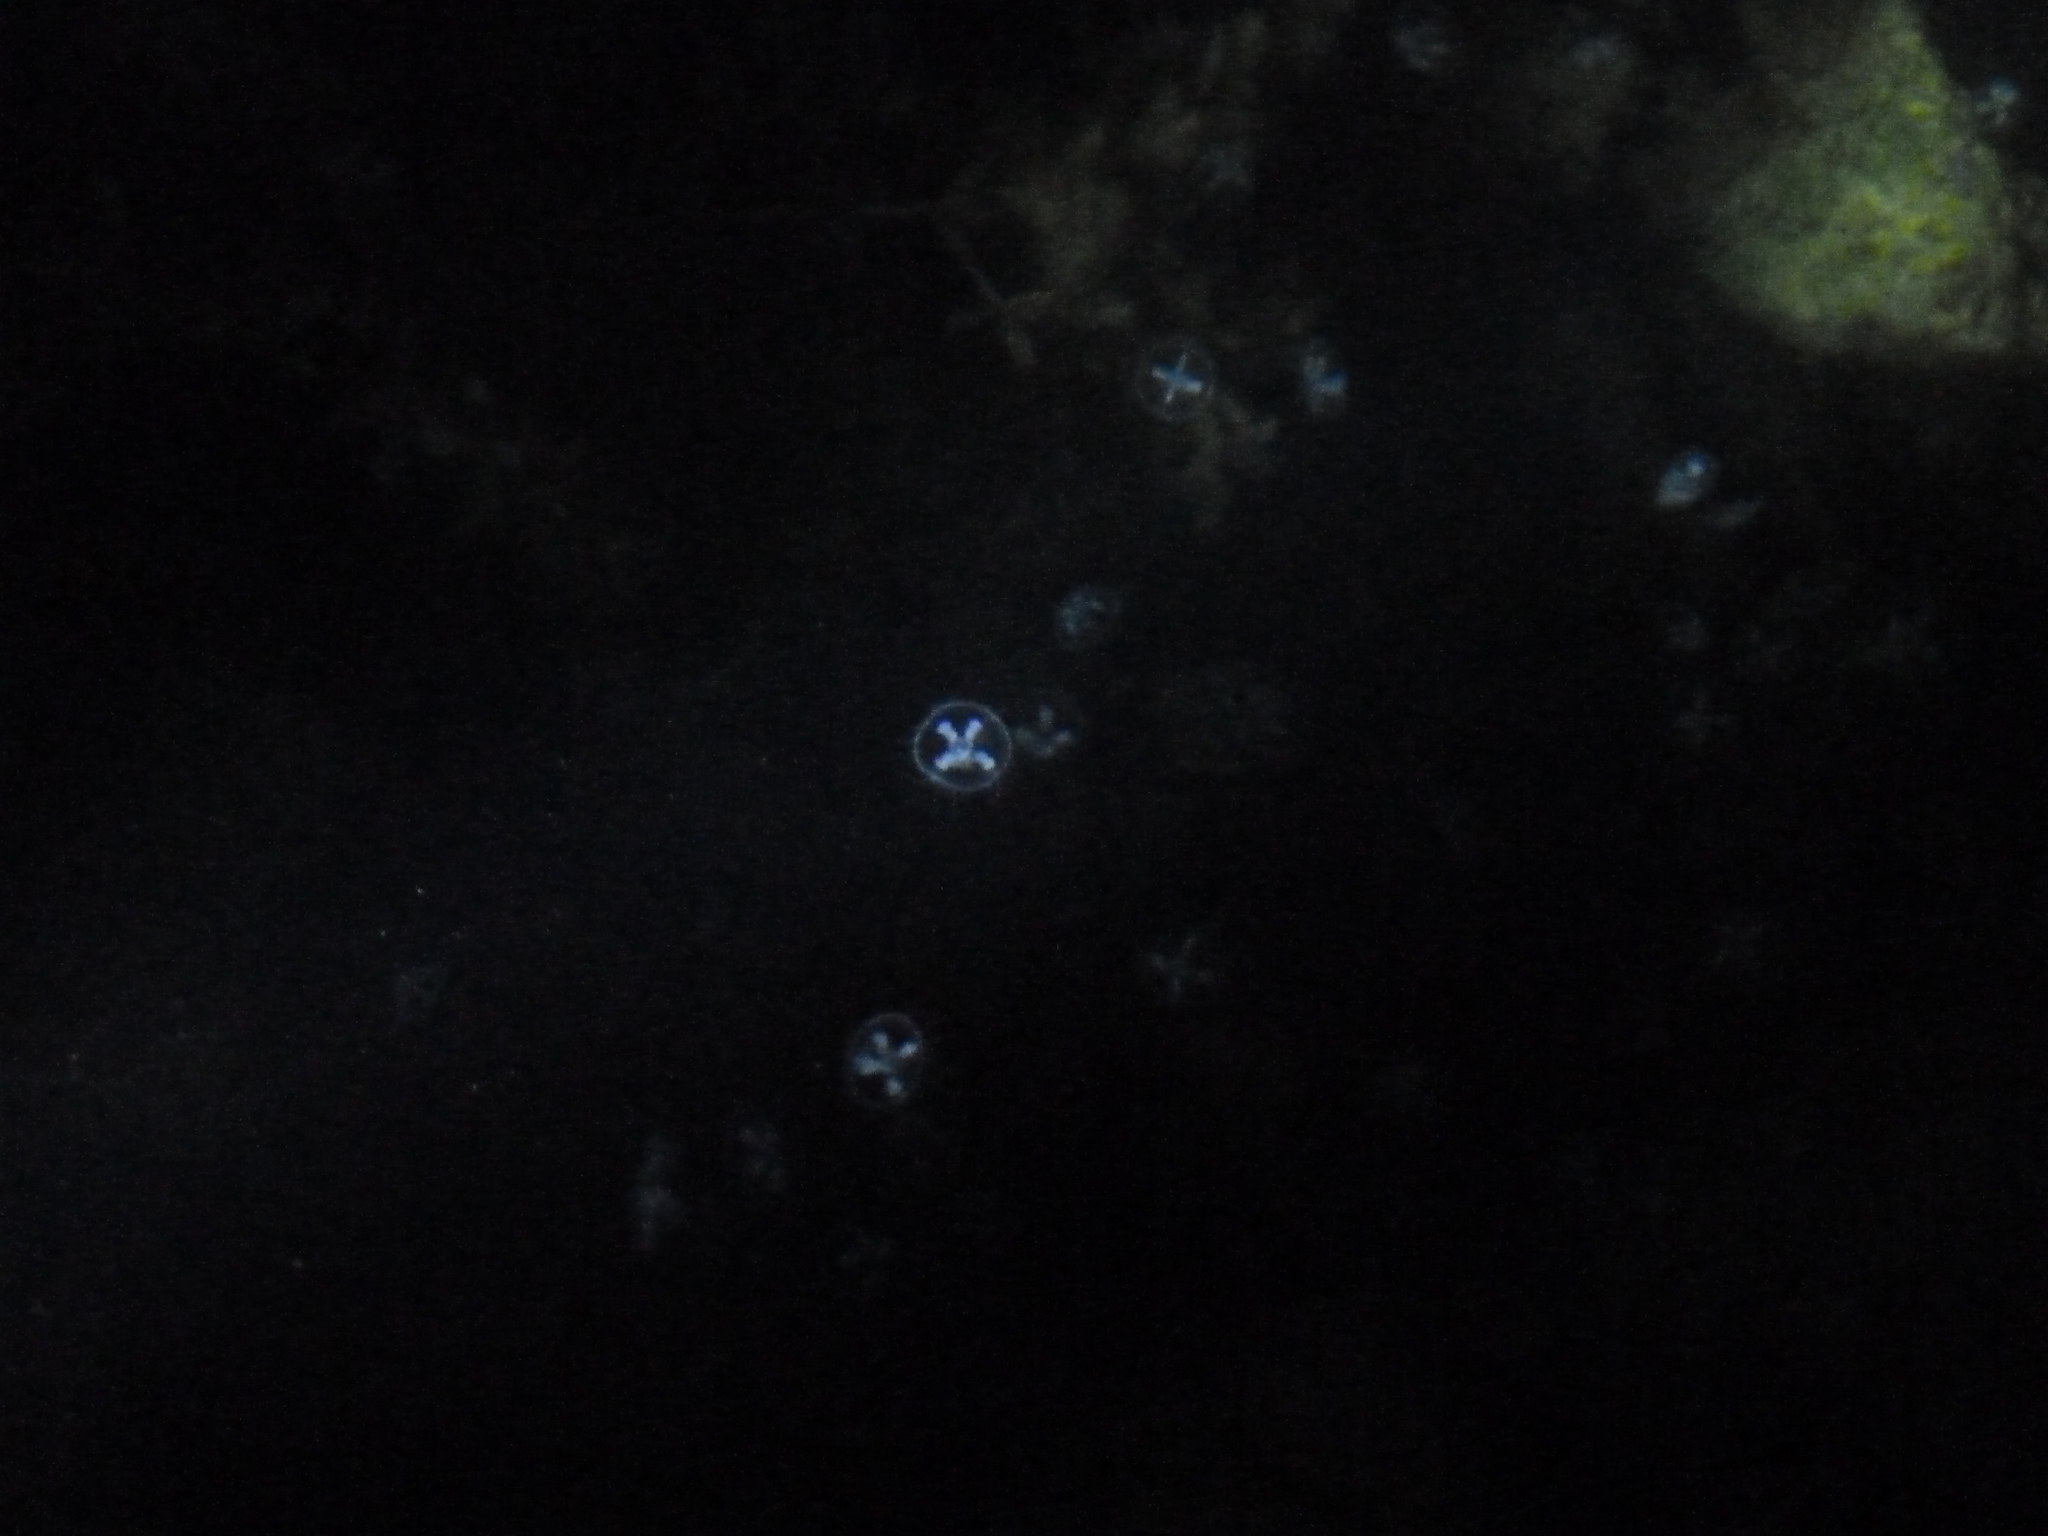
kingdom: Animalia
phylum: Cnidaria
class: Hydrozoa
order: Limnomedusae
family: Olindiidae
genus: Craspedacusta
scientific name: Craspedacusta sowerbii
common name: Freshwater jellyfish
